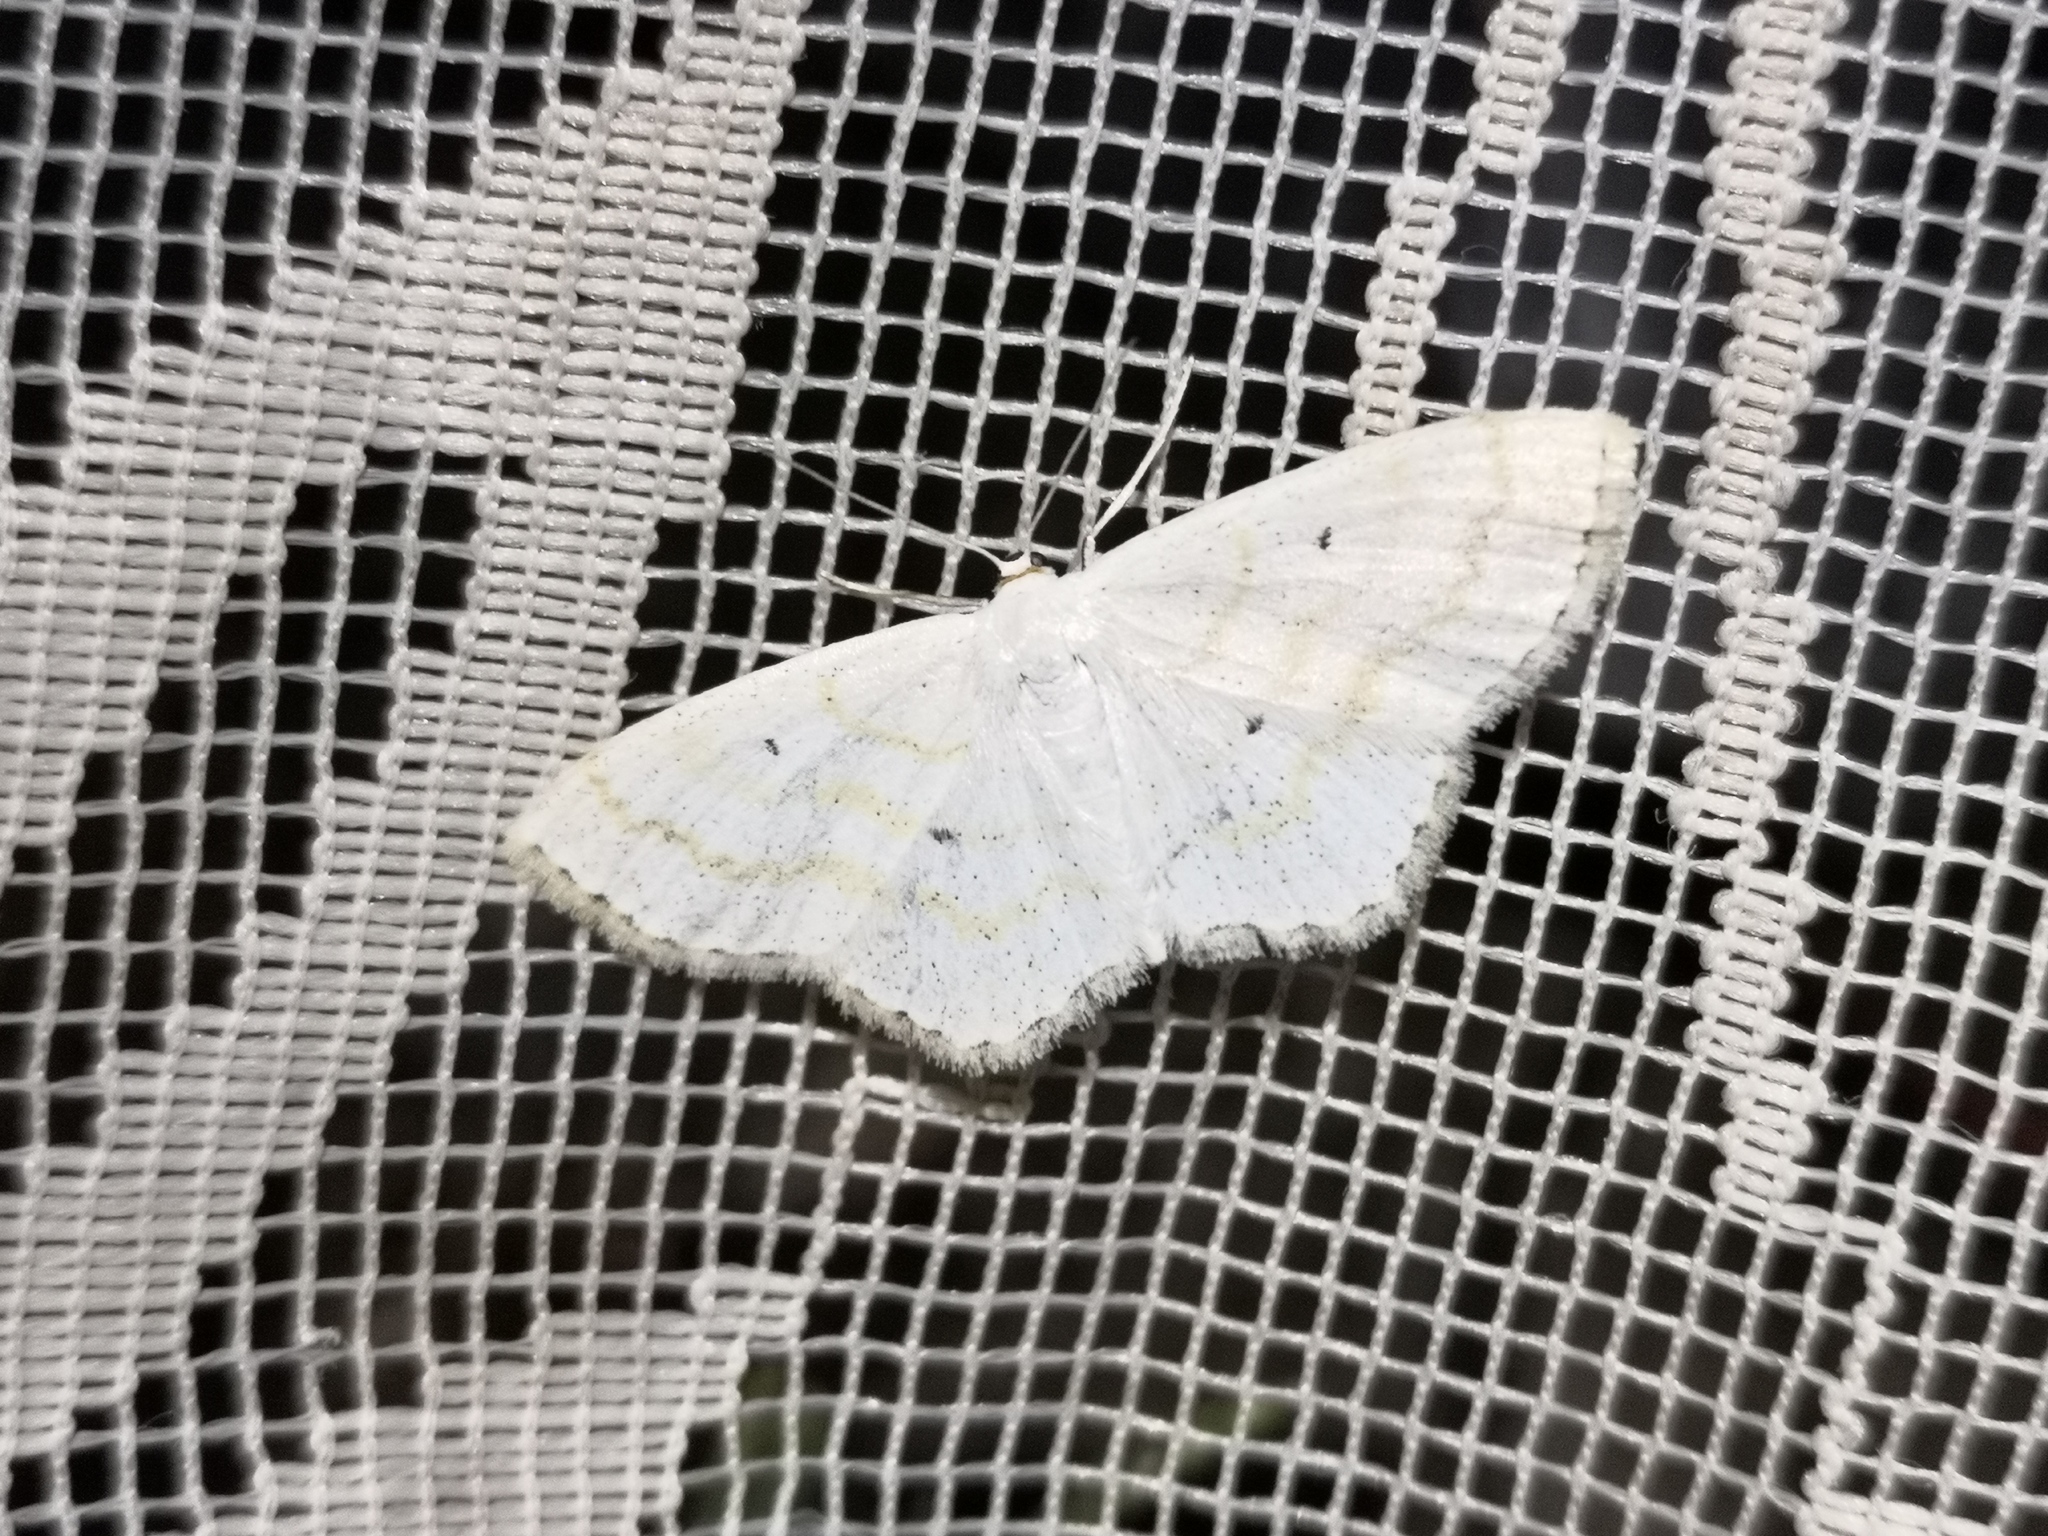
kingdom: Animalia
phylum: Arthropoda
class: Insecta
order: Lepidoptera
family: Geometridae
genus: Scopula
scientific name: Scopula immutata
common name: Lesser cream wave
